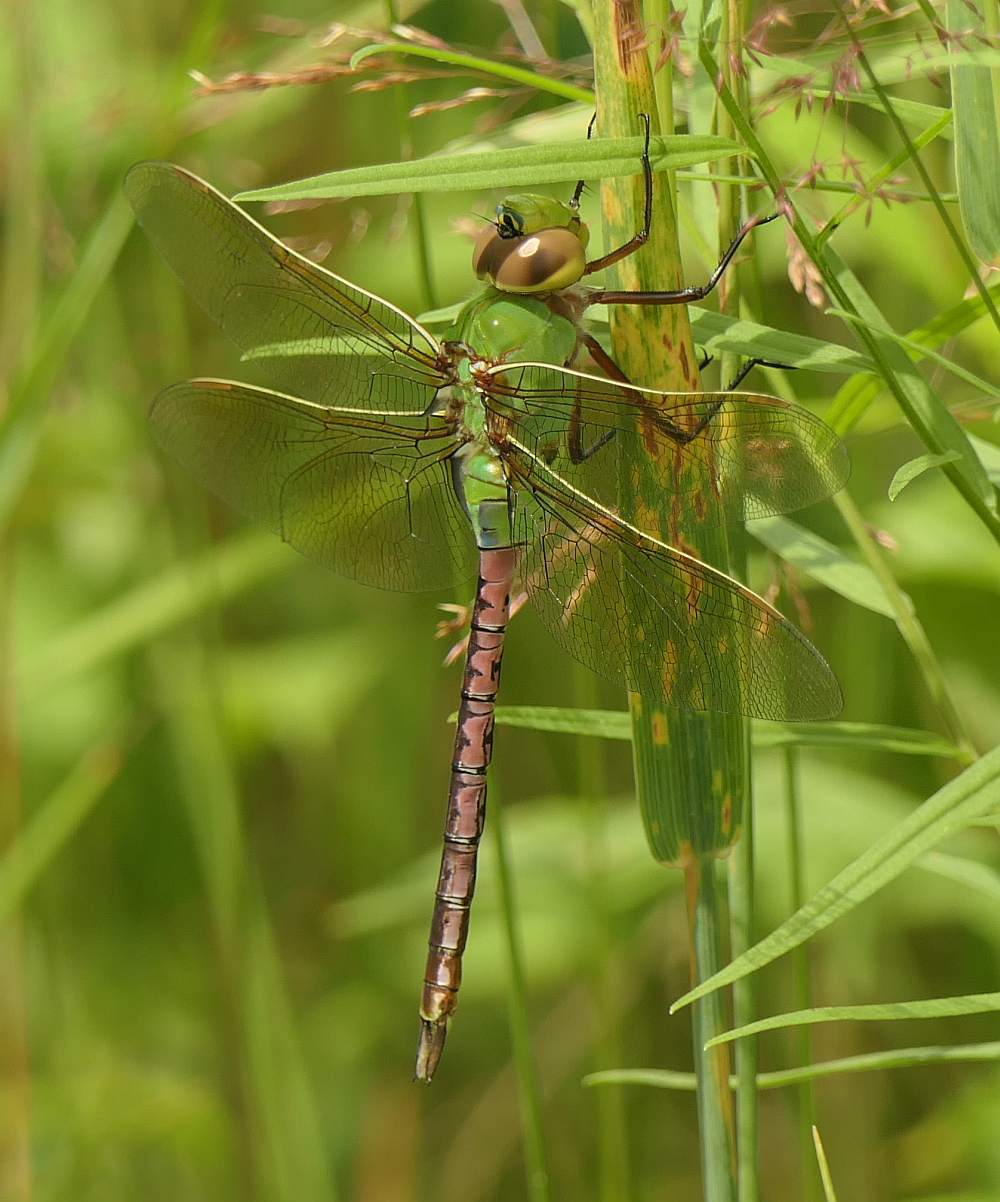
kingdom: Animalia
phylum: Arthropoda
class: Insecta
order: Odonata
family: Aeshnidae
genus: Anax
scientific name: Anax junius
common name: Common green darner
